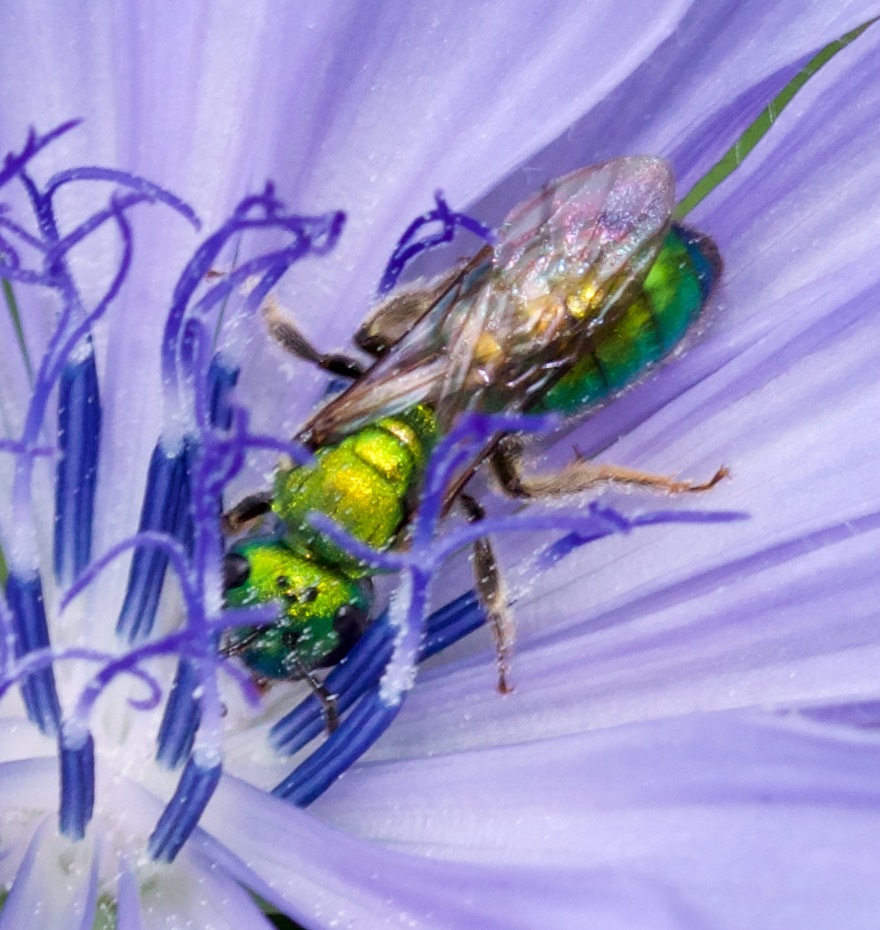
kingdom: Animalia
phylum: Arthropoda
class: Insecta
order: Hymenoptera
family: Halictidae
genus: Augochlora
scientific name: Augochlora pura
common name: Pure green sweat bee
